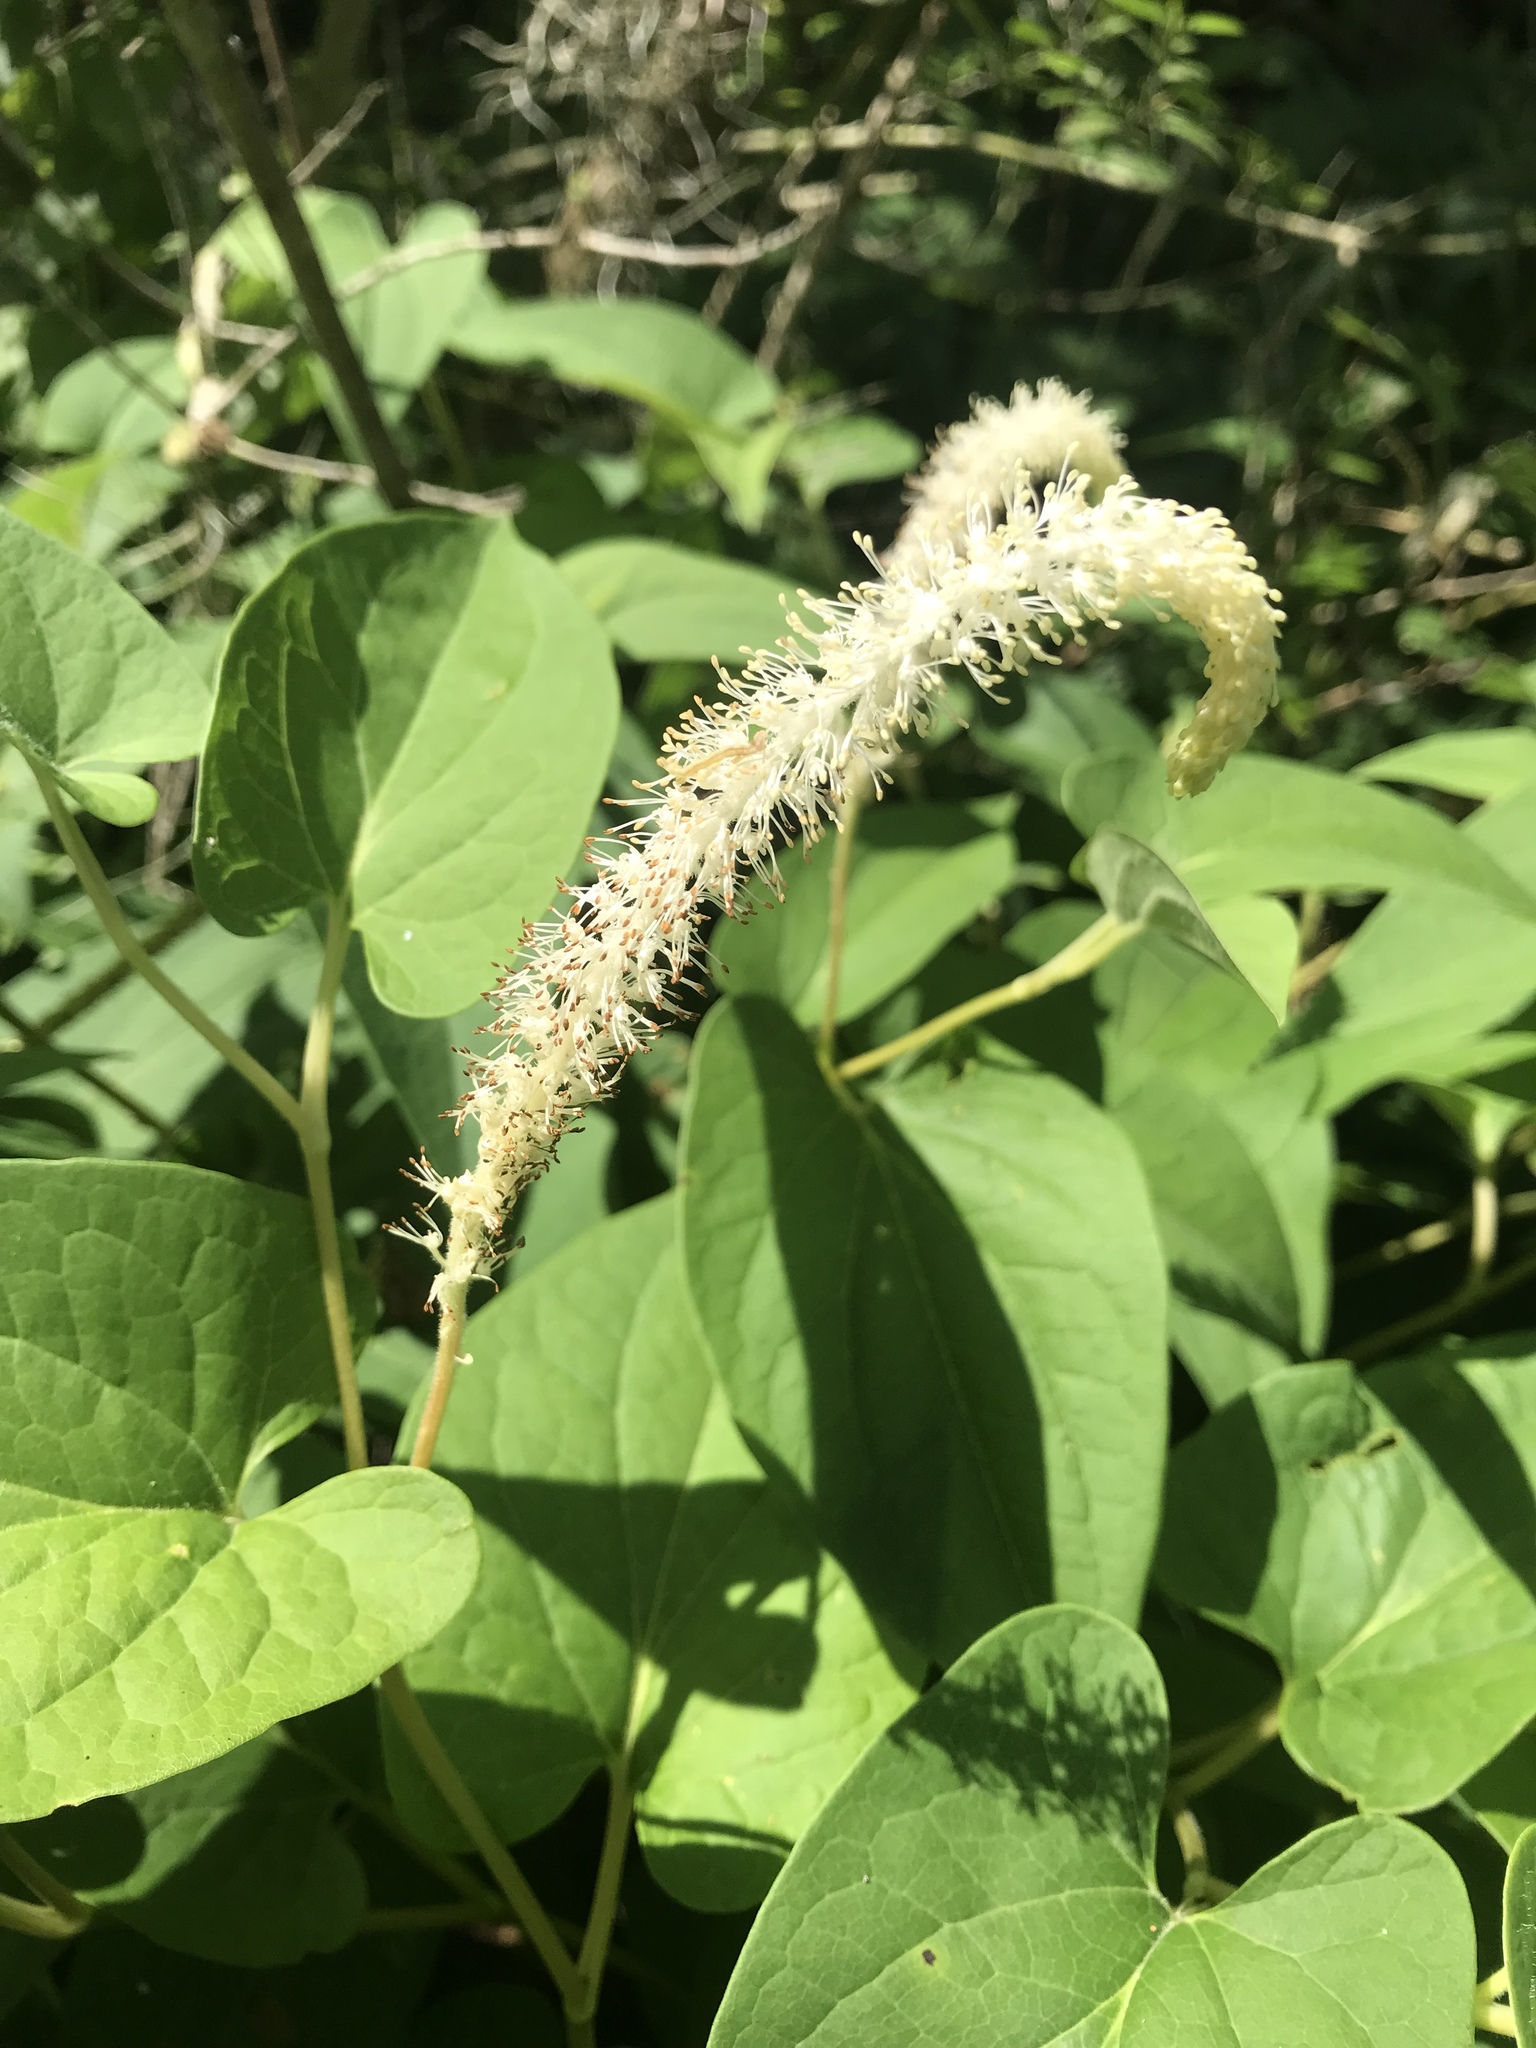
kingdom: Plantae
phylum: Tracheophyta
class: Magnoliopsida
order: Piperales
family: Saururaceae
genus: Saururus
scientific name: Saururus cernuus
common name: Lizard's-tail
